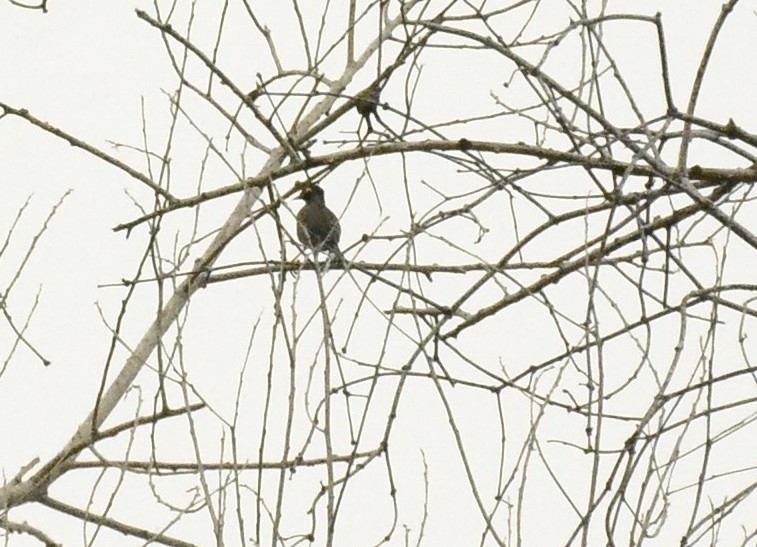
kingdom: Animalia
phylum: Chordata
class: Aves
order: Passeriformes
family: Sturnidae
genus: Acridotheres
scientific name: Acridotheres tristis
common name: Common myna
